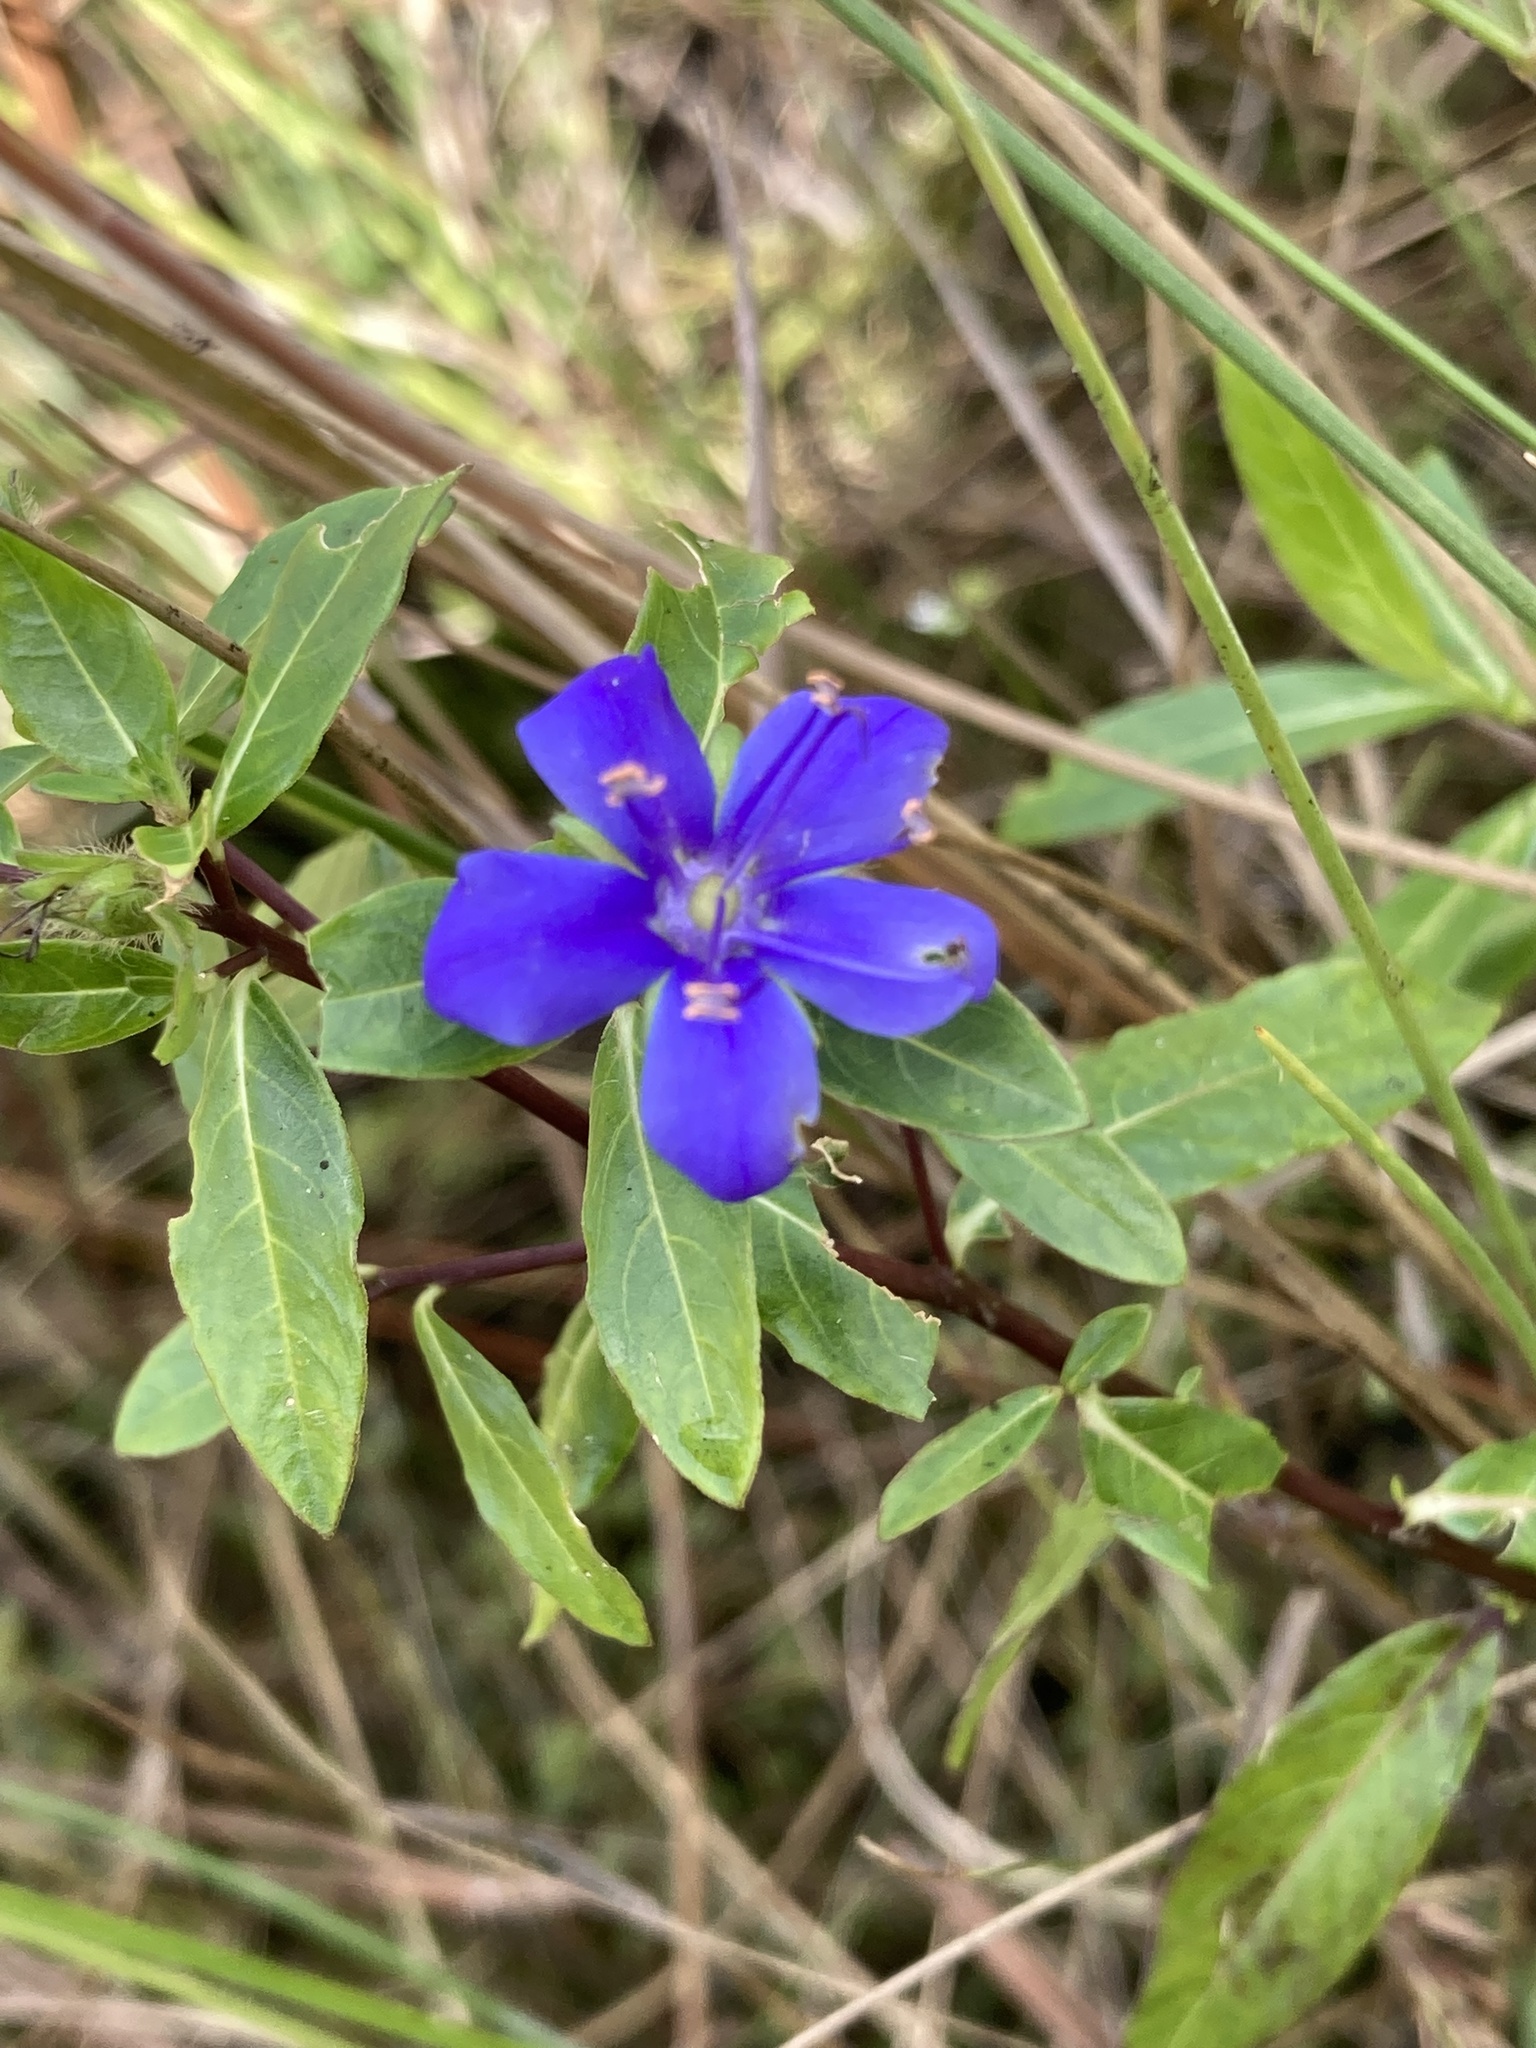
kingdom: Plantae
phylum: Tracheophyta
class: Magnoliopsida
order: Solanales
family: Hydroleaceae
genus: Hydrolea
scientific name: Hydrolea corymbosa
